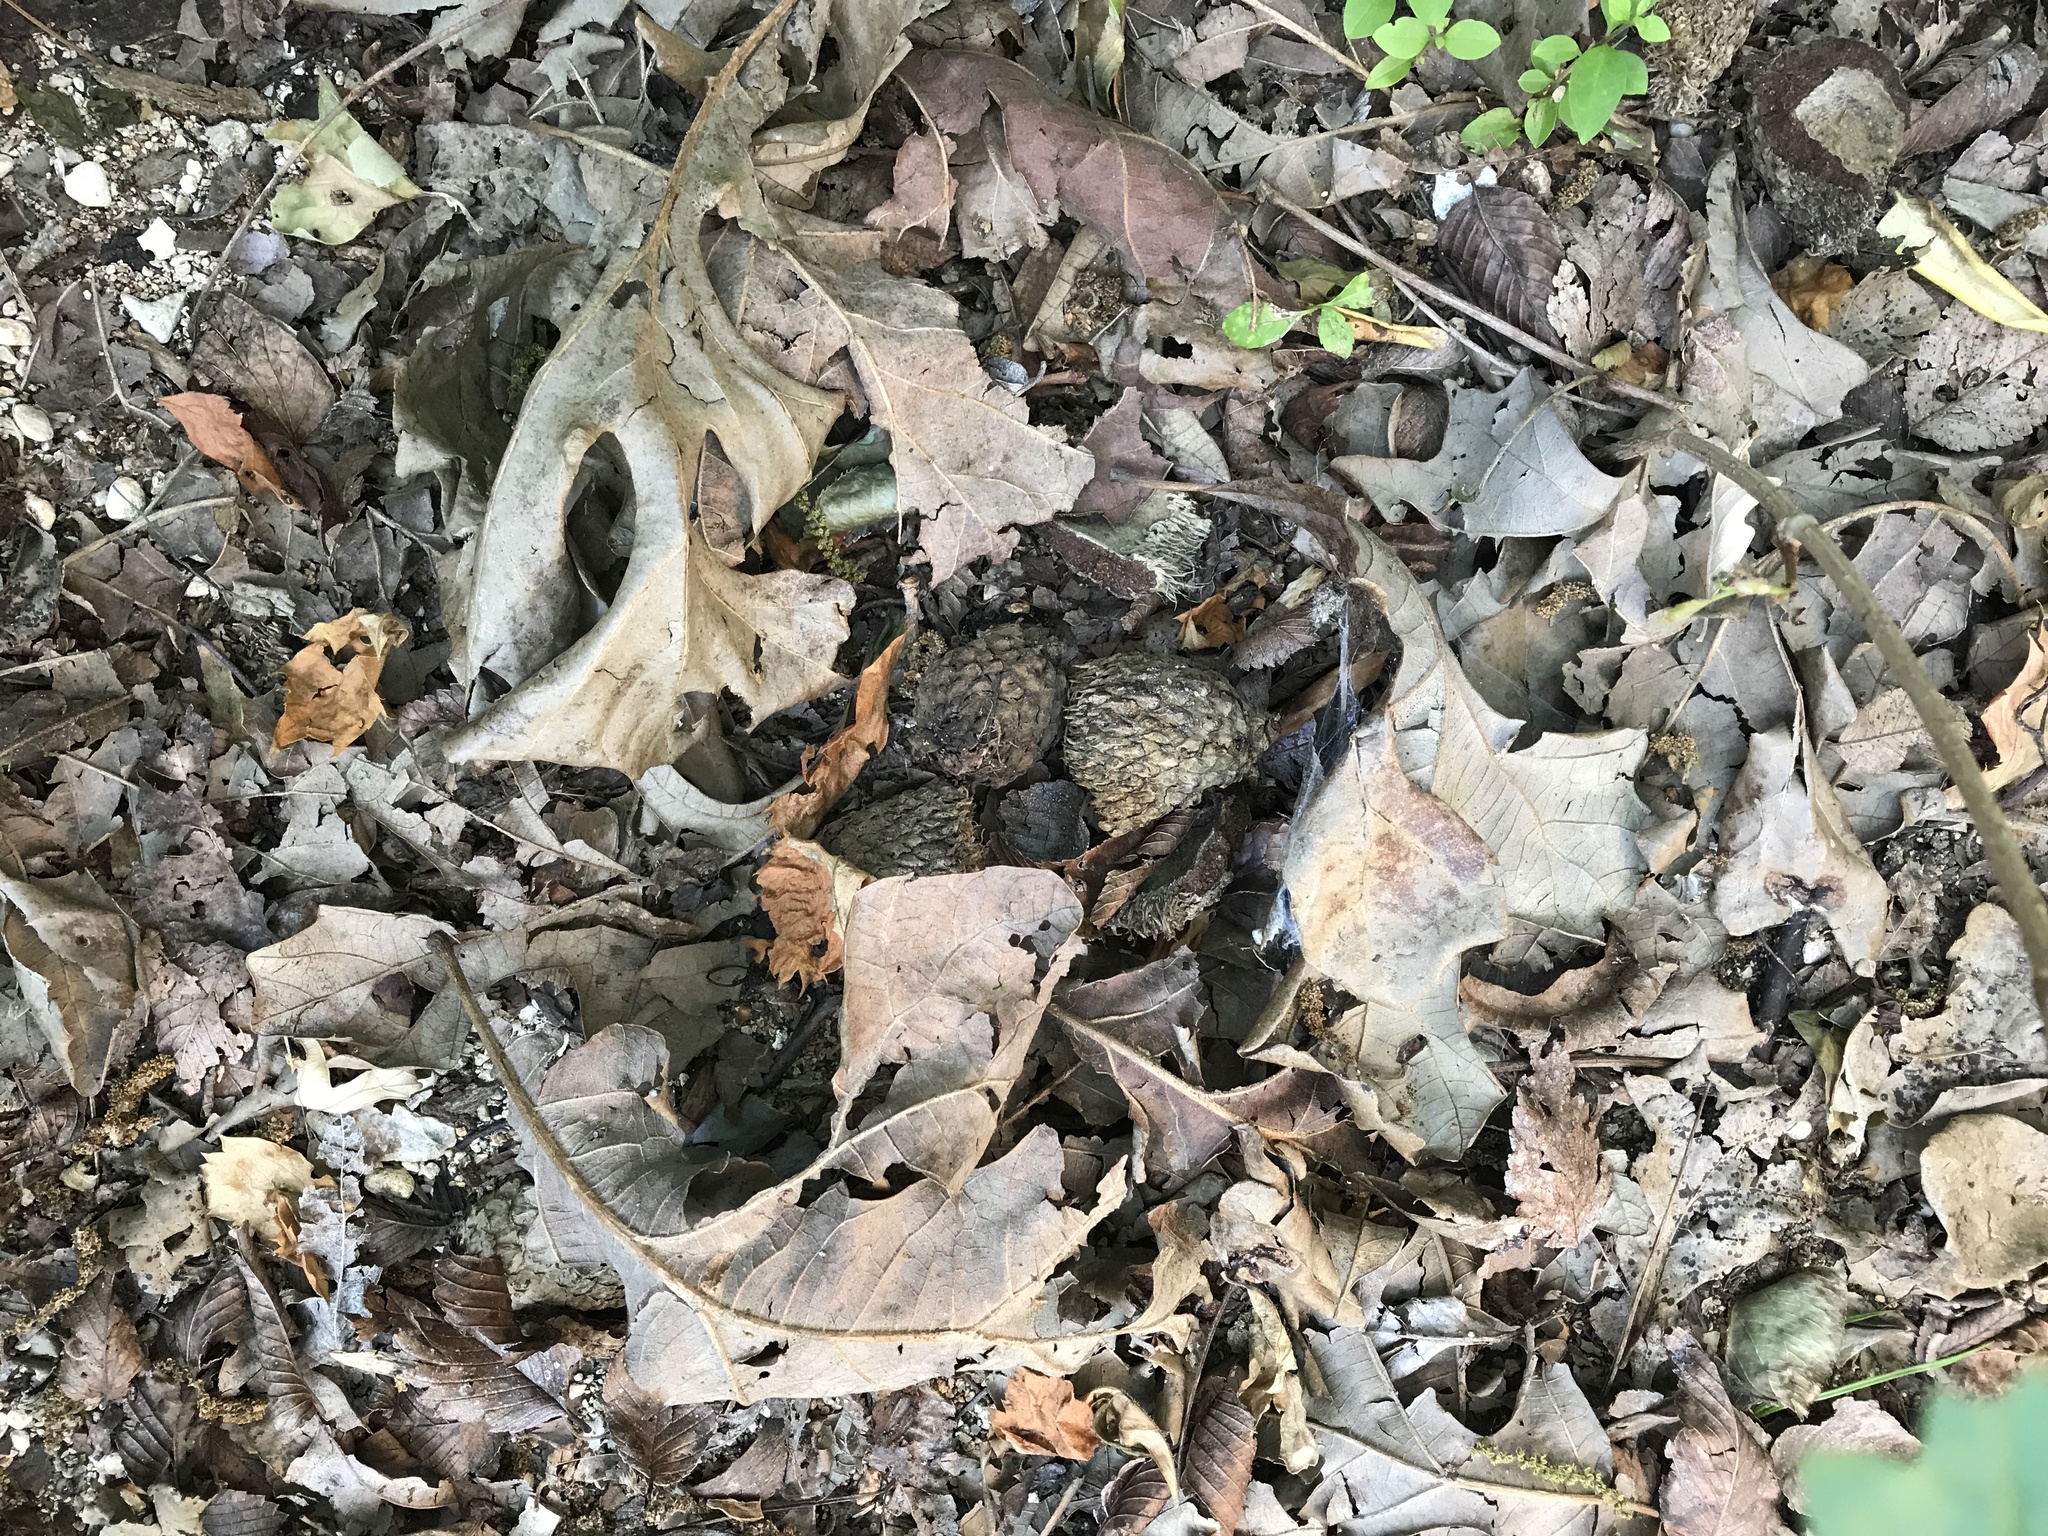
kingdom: Plantae
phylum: Tracheophyta
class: Magnoliopsida
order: Fagales
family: Fagaceae
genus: Quercus
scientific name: Quercus macrocarpa
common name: Bur oak
